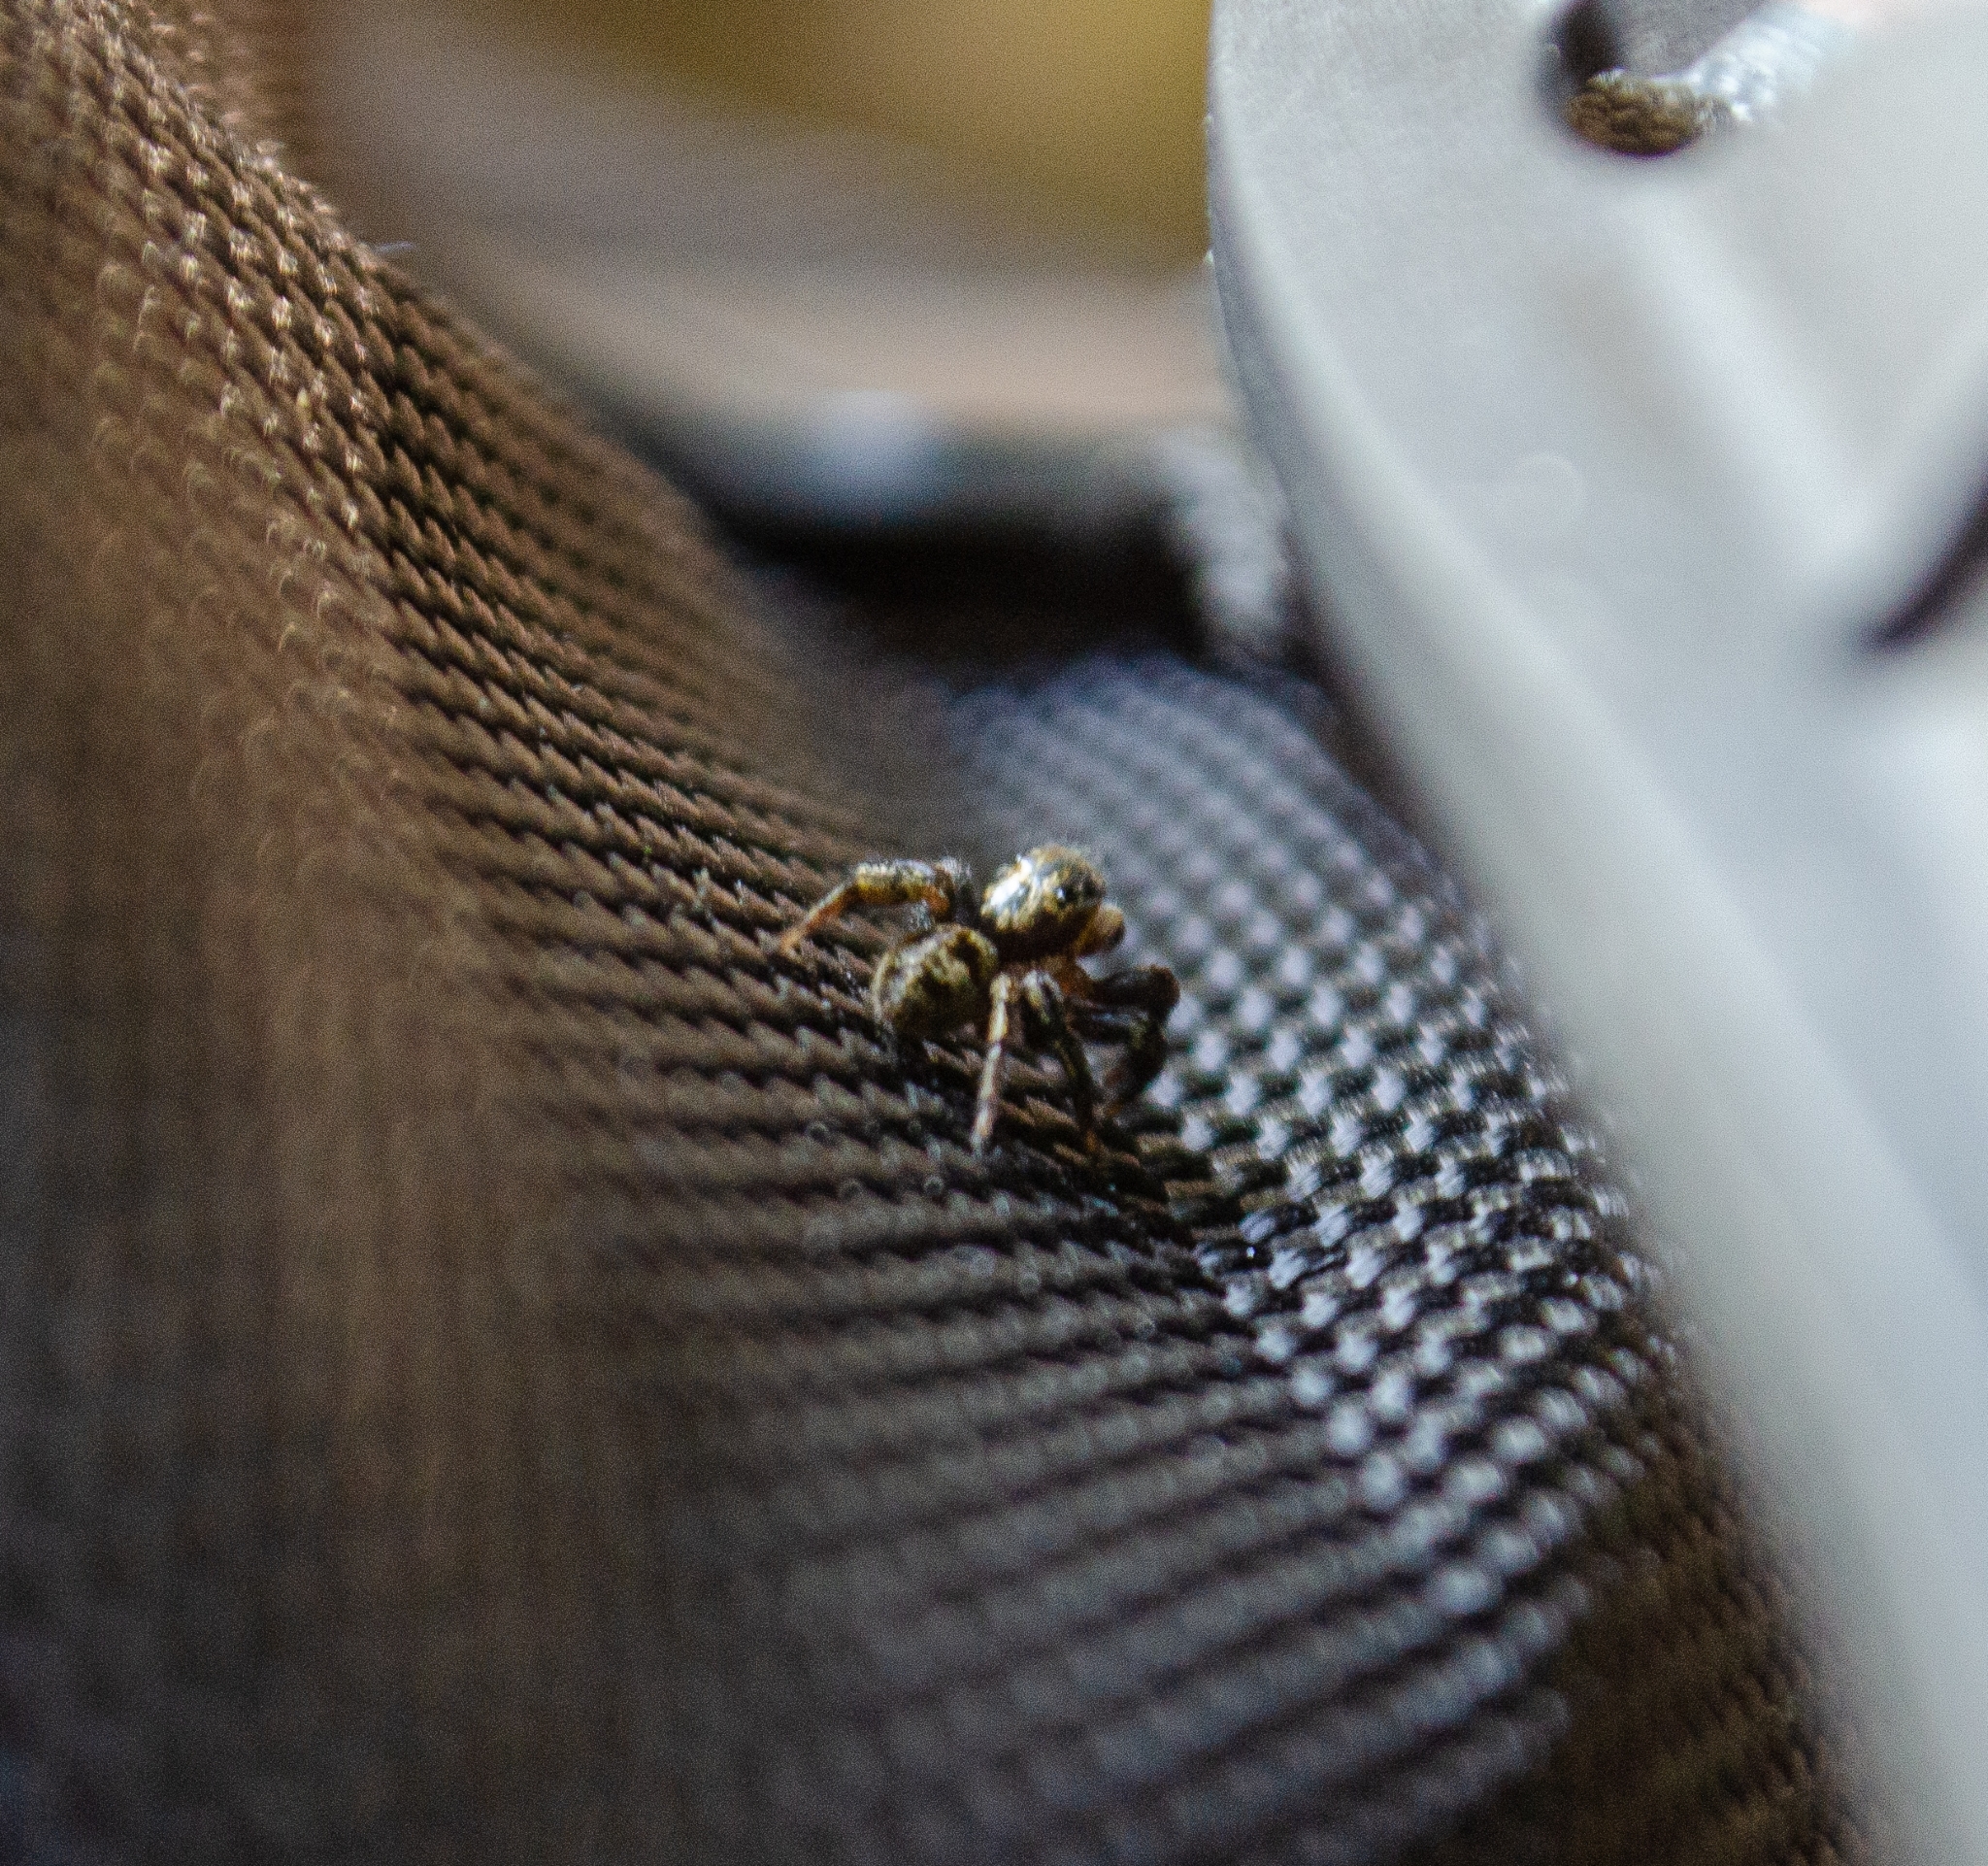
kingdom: Animalia
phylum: Arthropoda
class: Arachnida
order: Araneae
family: Salticidae
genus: Corythalia
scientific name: Corythalia conferta
